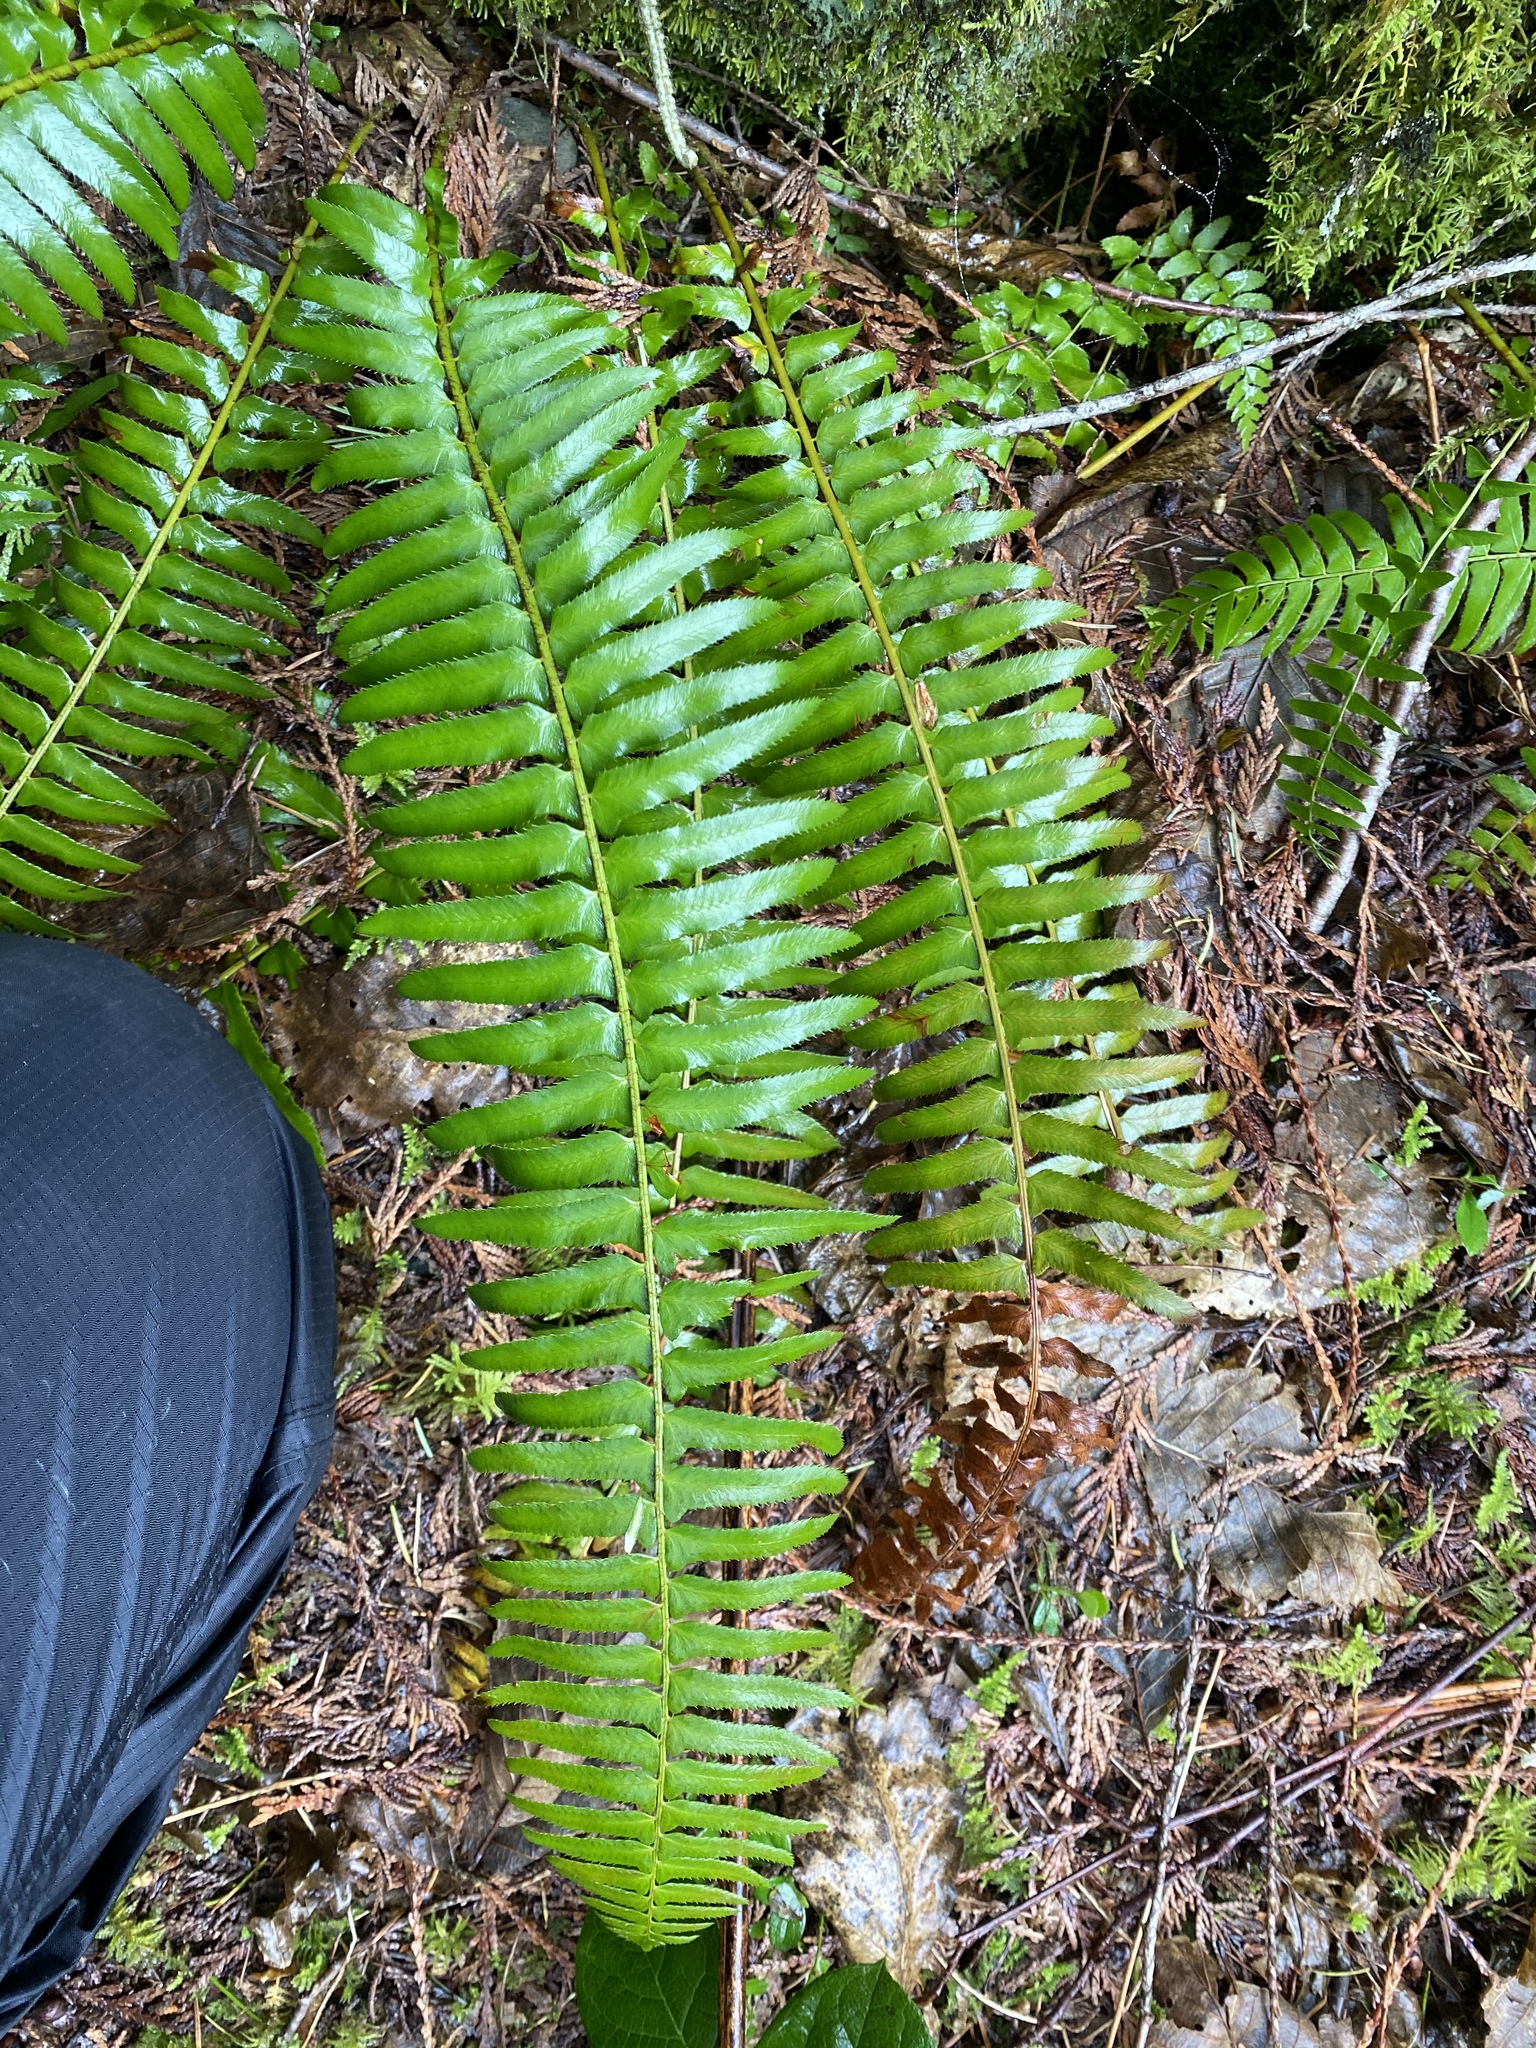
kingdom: Plantae
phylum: Tracheophyta
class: Polypodiopsida
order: Polypodiales
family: Dryopteridaceae
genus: Polystichum
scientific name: Polystichum munitum
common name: Western sword-fern
